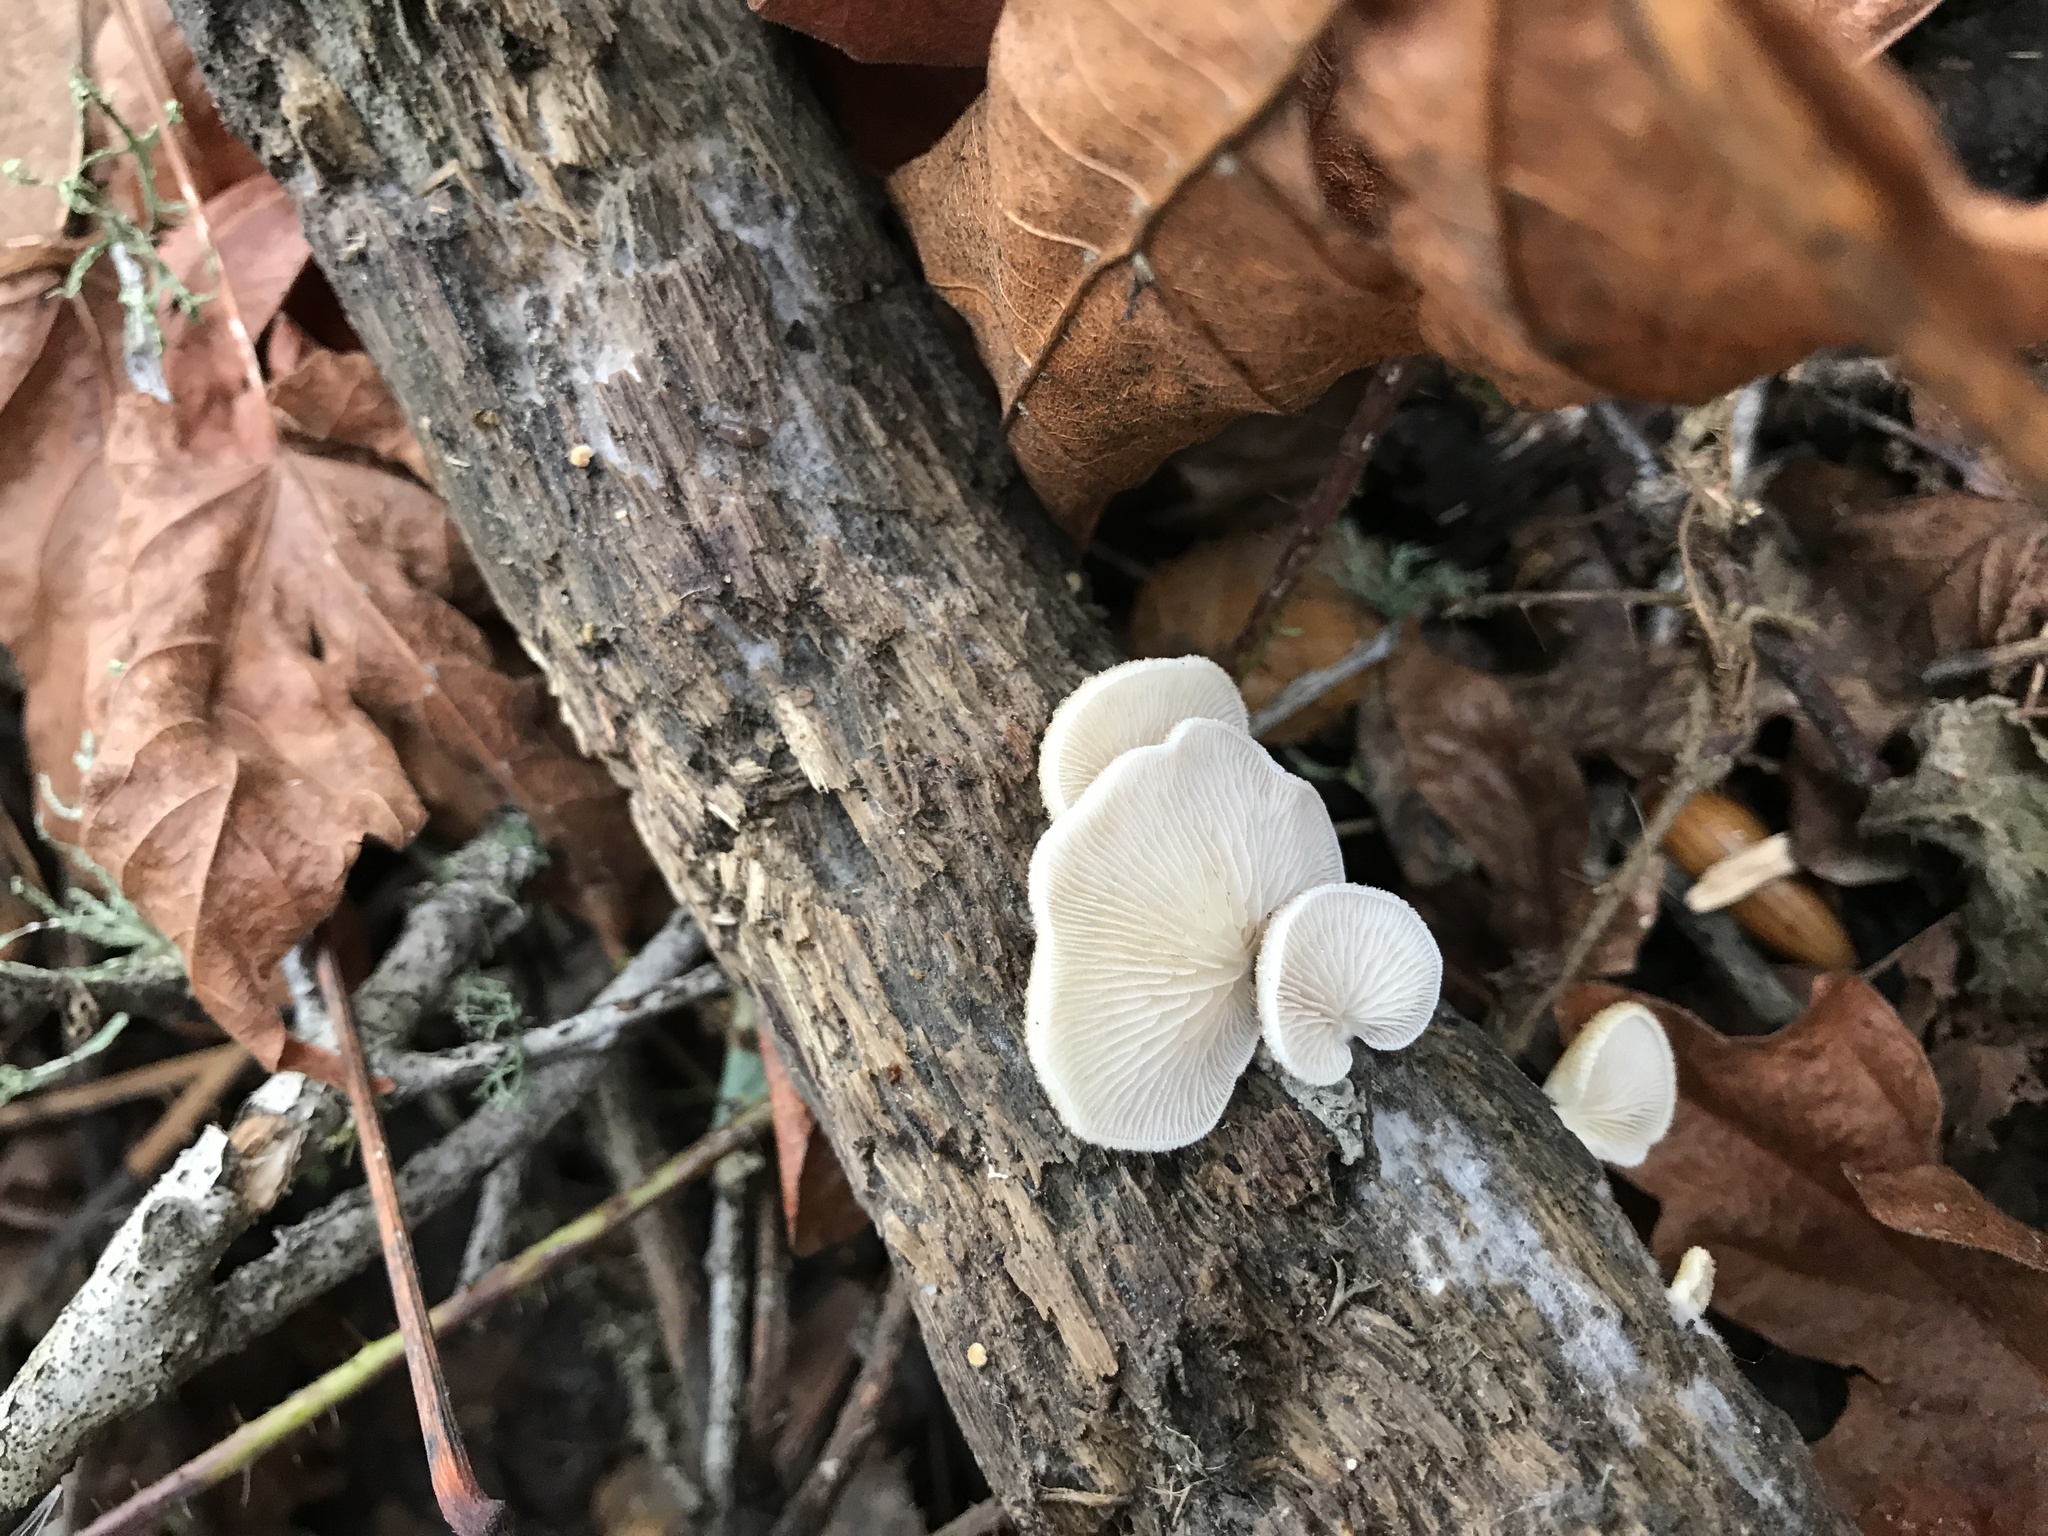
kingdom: Fungi
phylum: Basidiomycota
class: Agaricomycetes
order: Agaricales
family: Crepidotaceae
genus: Crepidotus
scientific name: Crepidotus mollis
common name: Peeling oysterling
